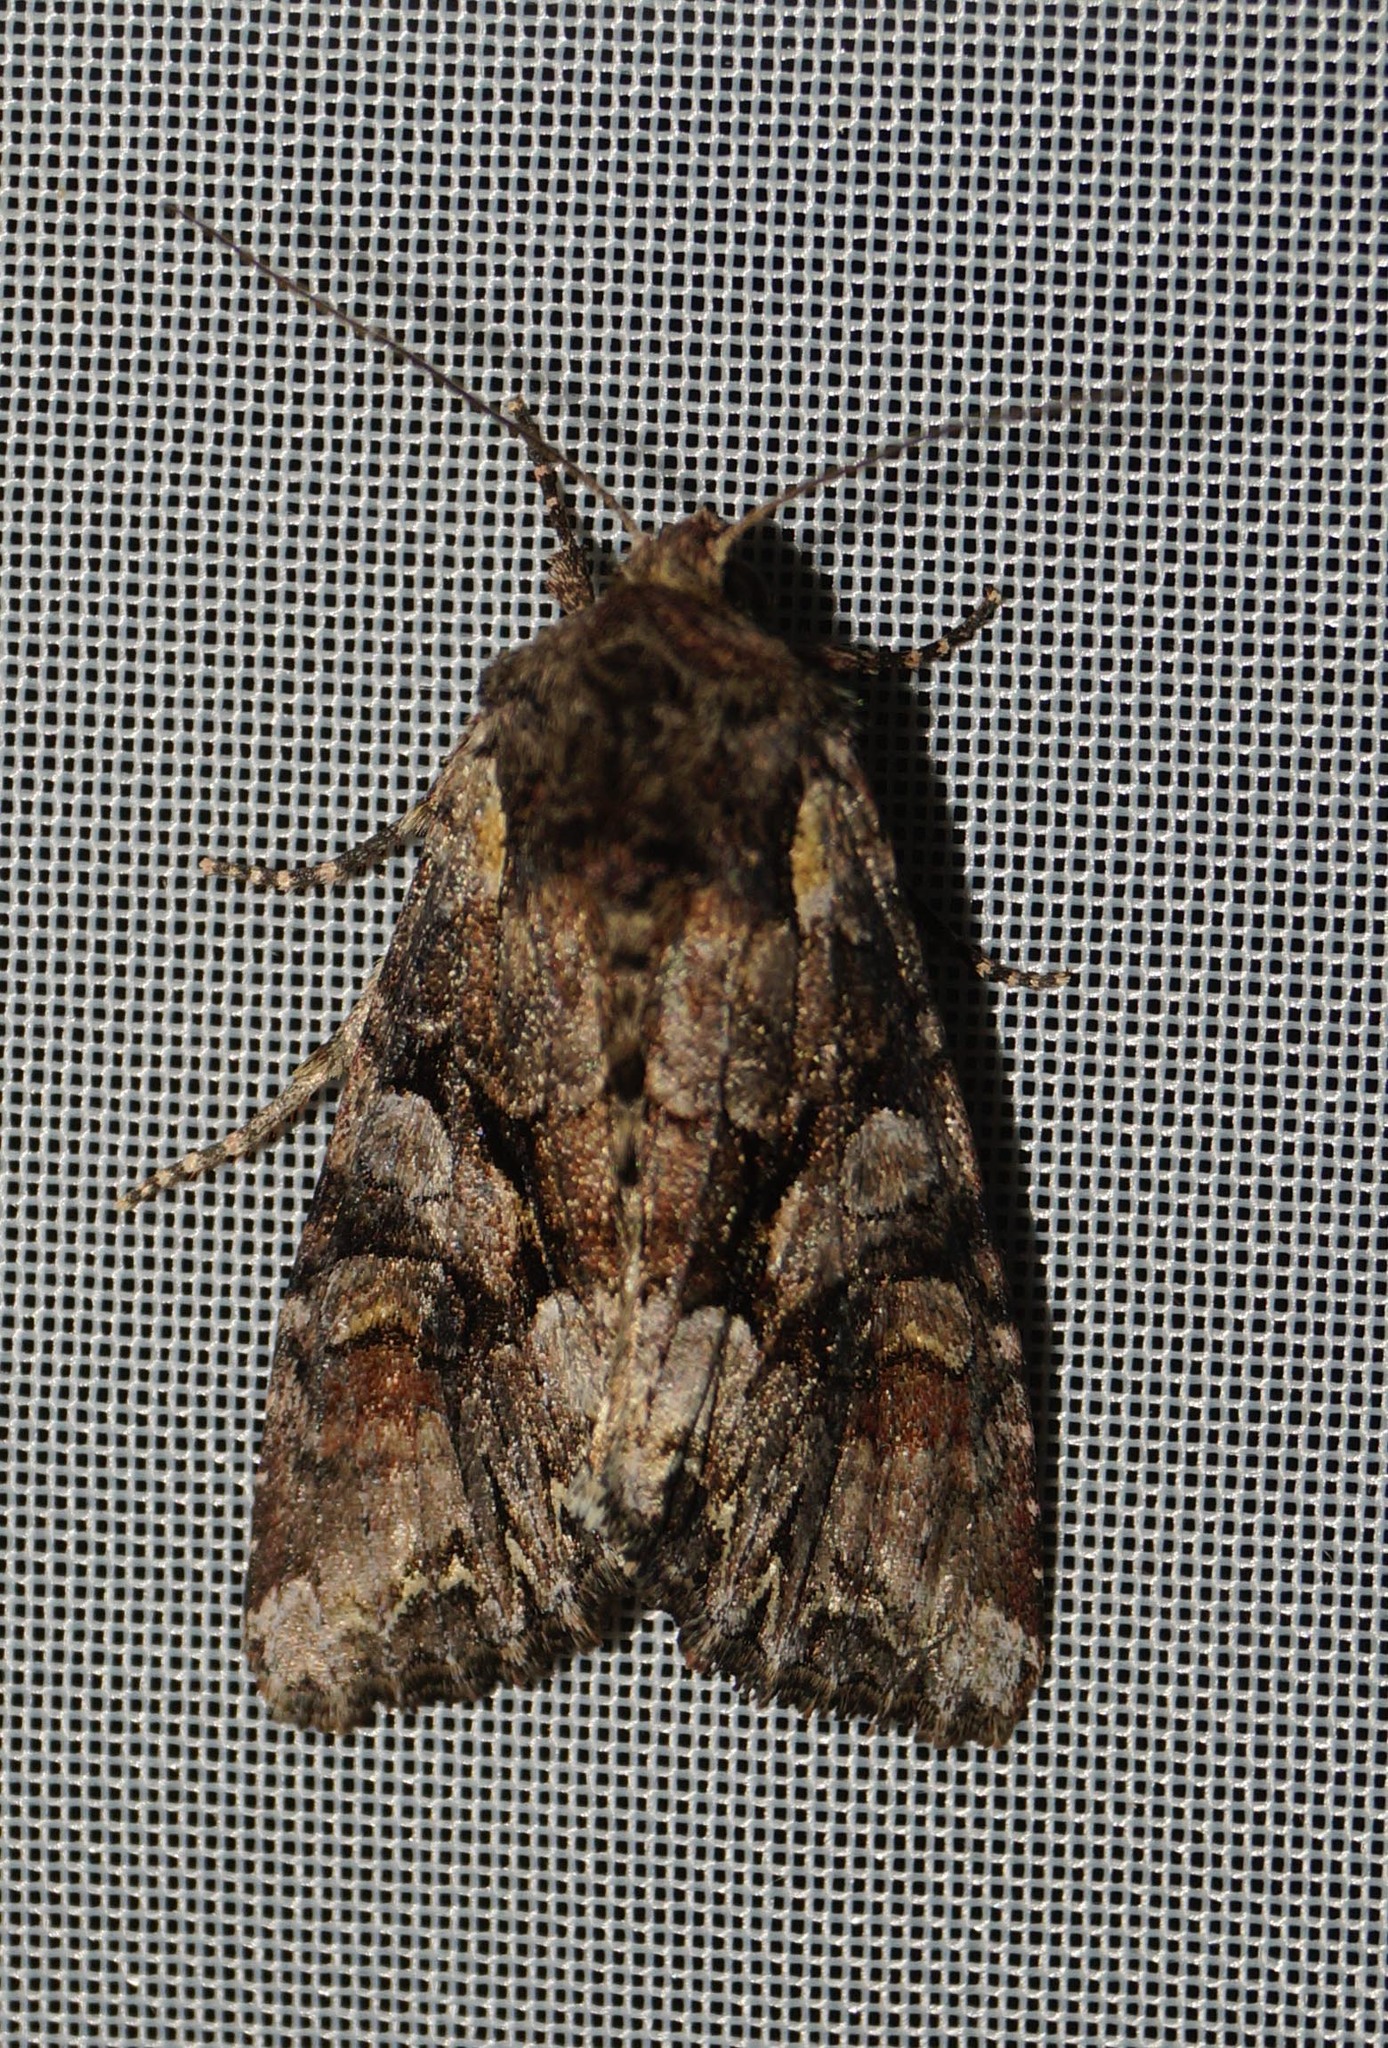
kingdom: Animalia
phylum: Arthropoda
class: Insecta
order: Lepidoptera
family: Noctuidae
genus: Lacanobia
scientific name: Lacanobia contigua
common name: Beautiful brocade
